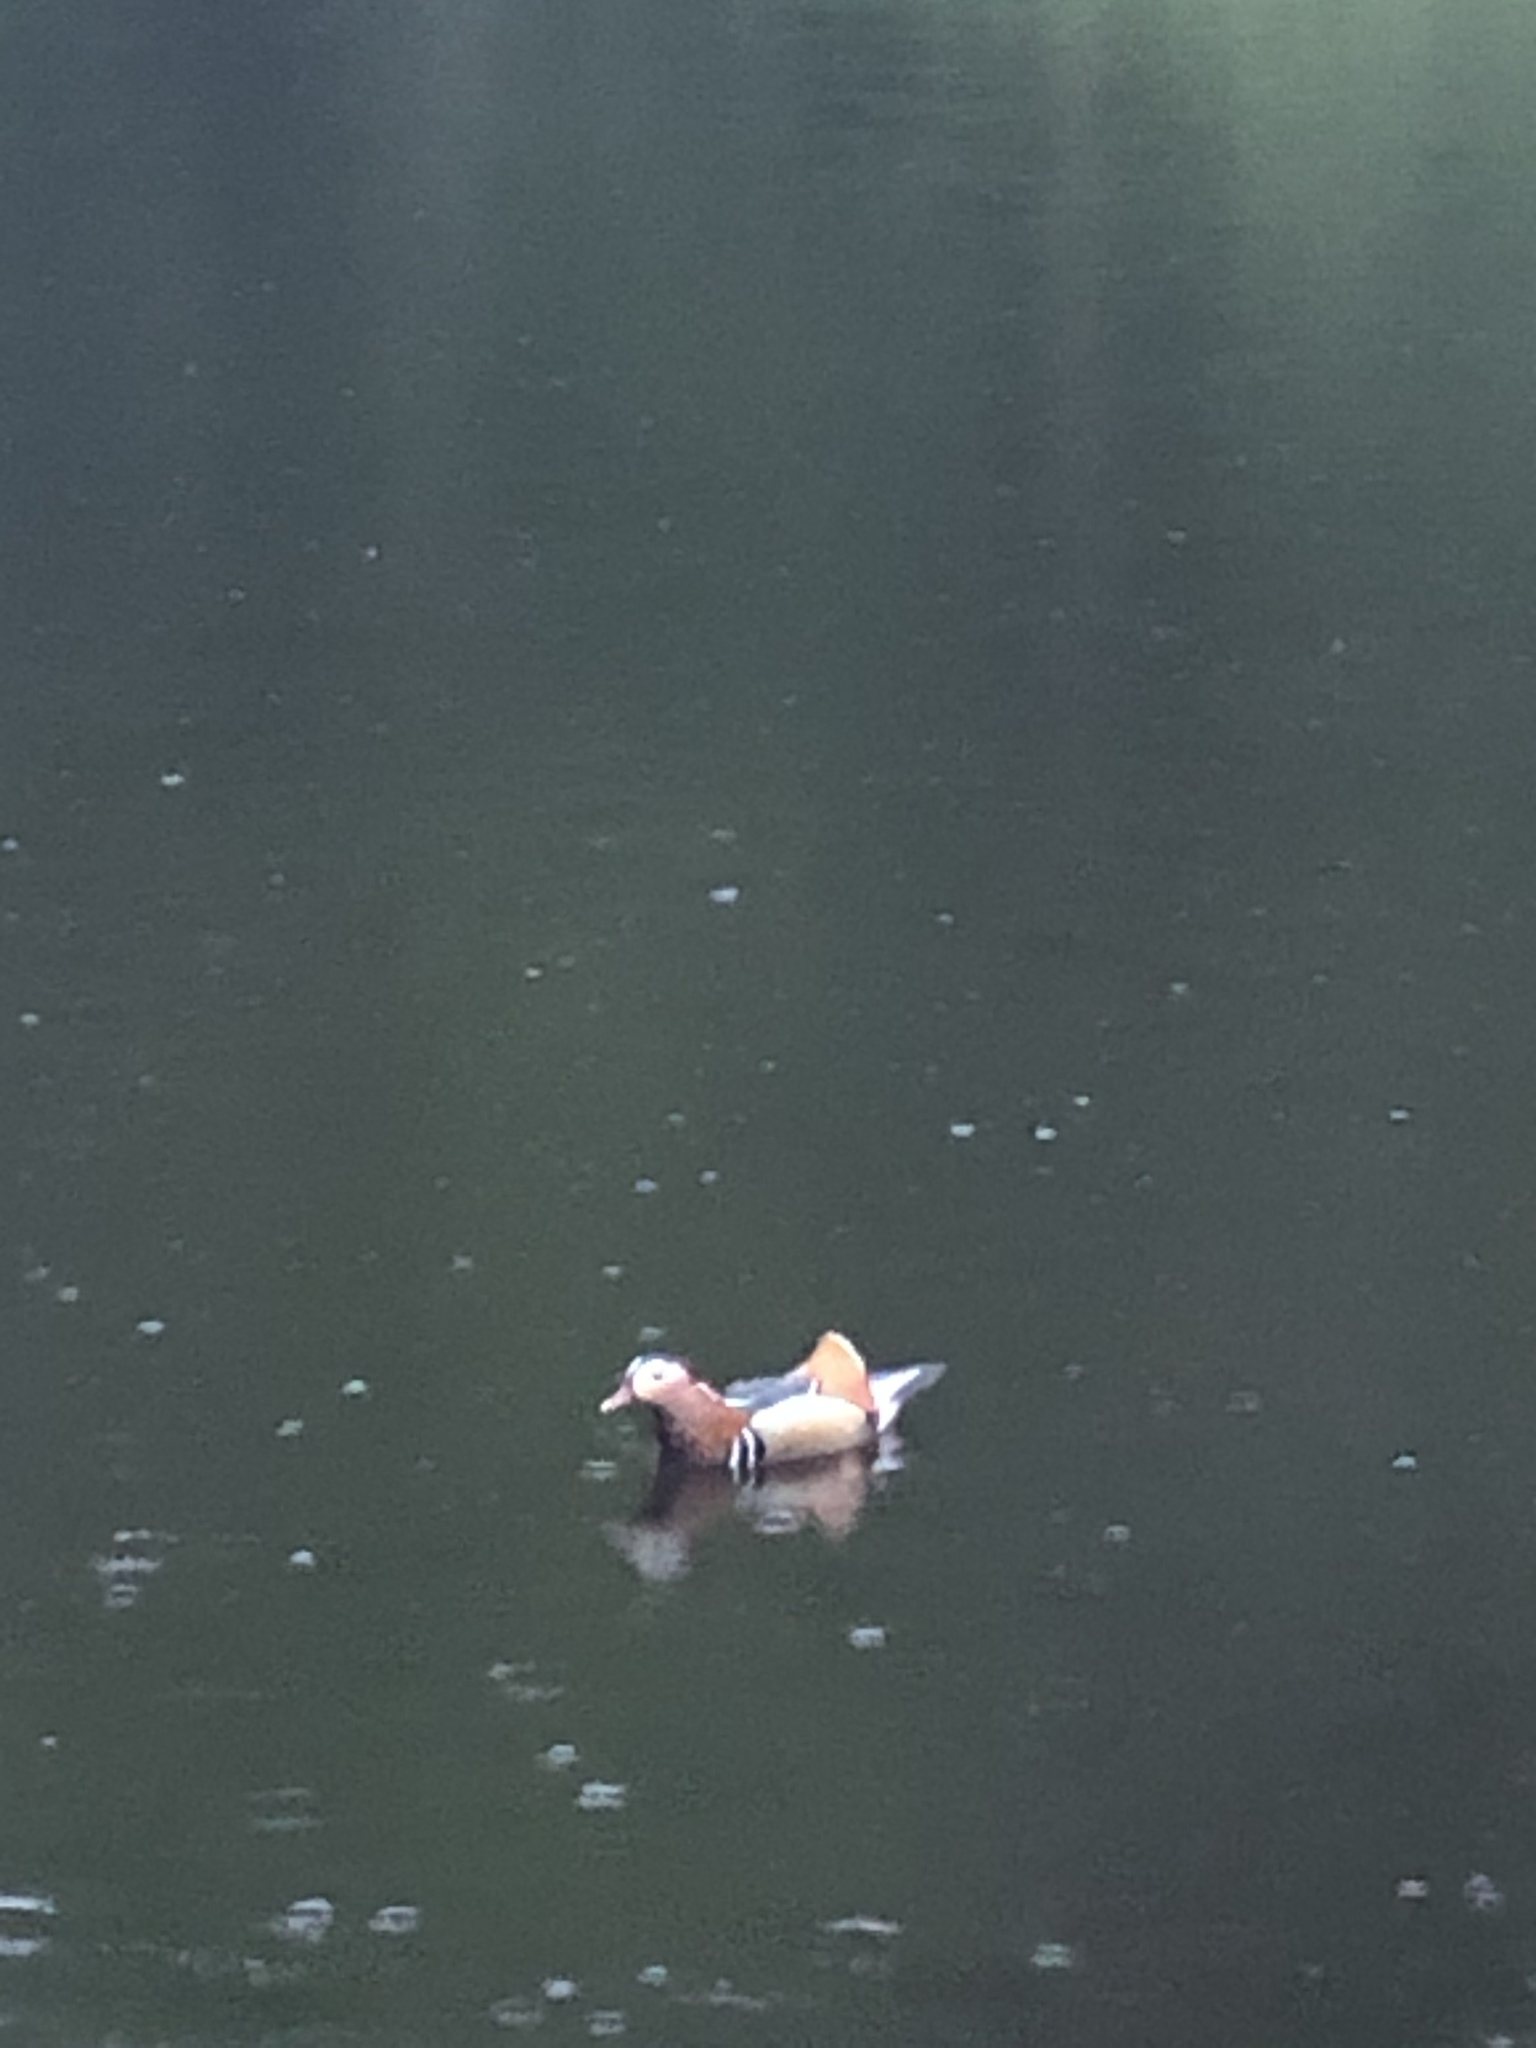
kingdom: Animalia
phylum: Chordata
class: Aves
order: Anseriformes
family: Anatidae
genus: Aix
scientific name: Aix galericulata
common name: Mandarin duck
